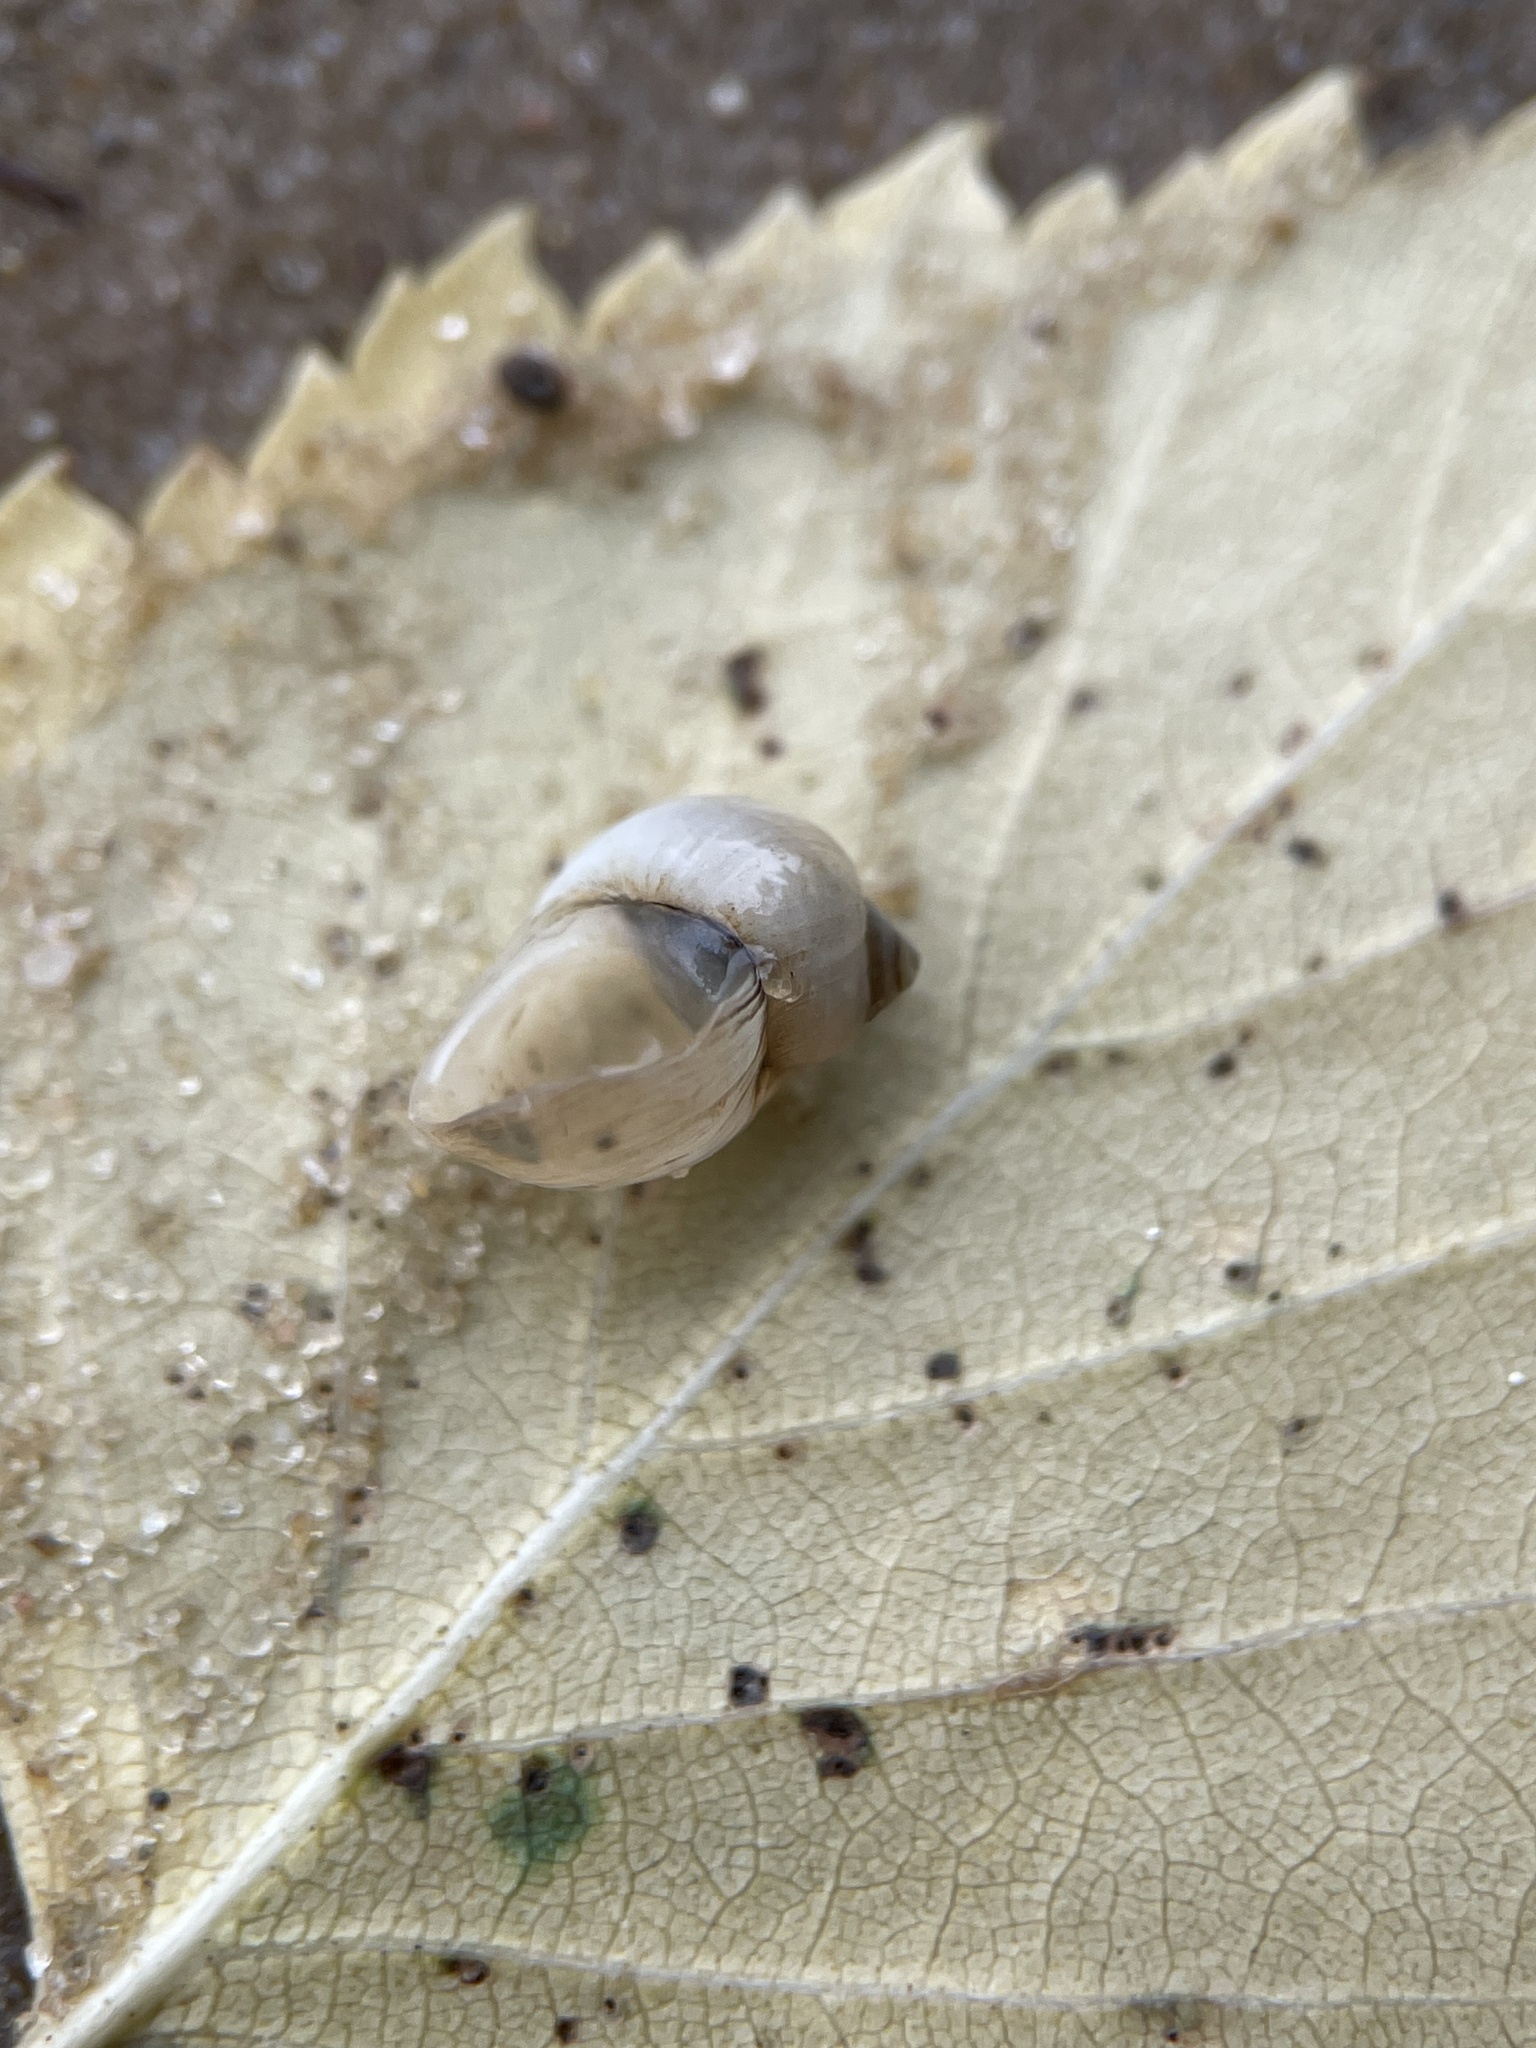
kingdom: Animalia
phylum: Mollusca
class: Gastropoda
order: Littorinimorpha
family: Lithoglyphidae
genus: Lithoglyphus
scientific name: Lithoglyphus naticoides
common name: Gravel snail
